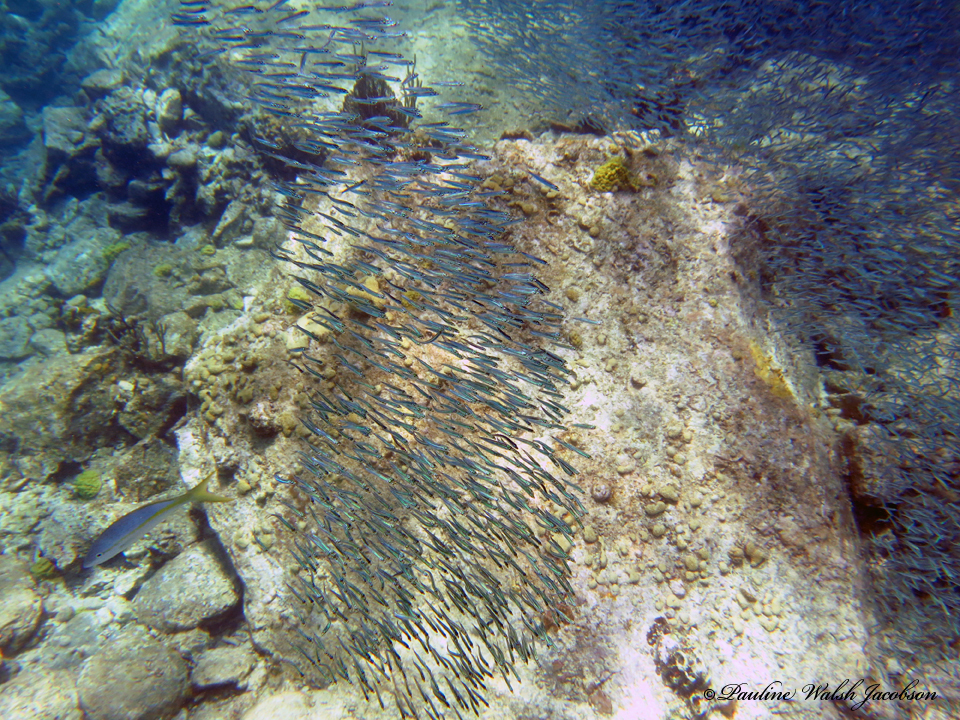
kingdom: Animalia
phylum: Chordata
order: Perciformes
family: Lutjanidae
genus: Ocyurus
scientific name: Ocyurus chrysurus
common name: Yellowtail snapper
